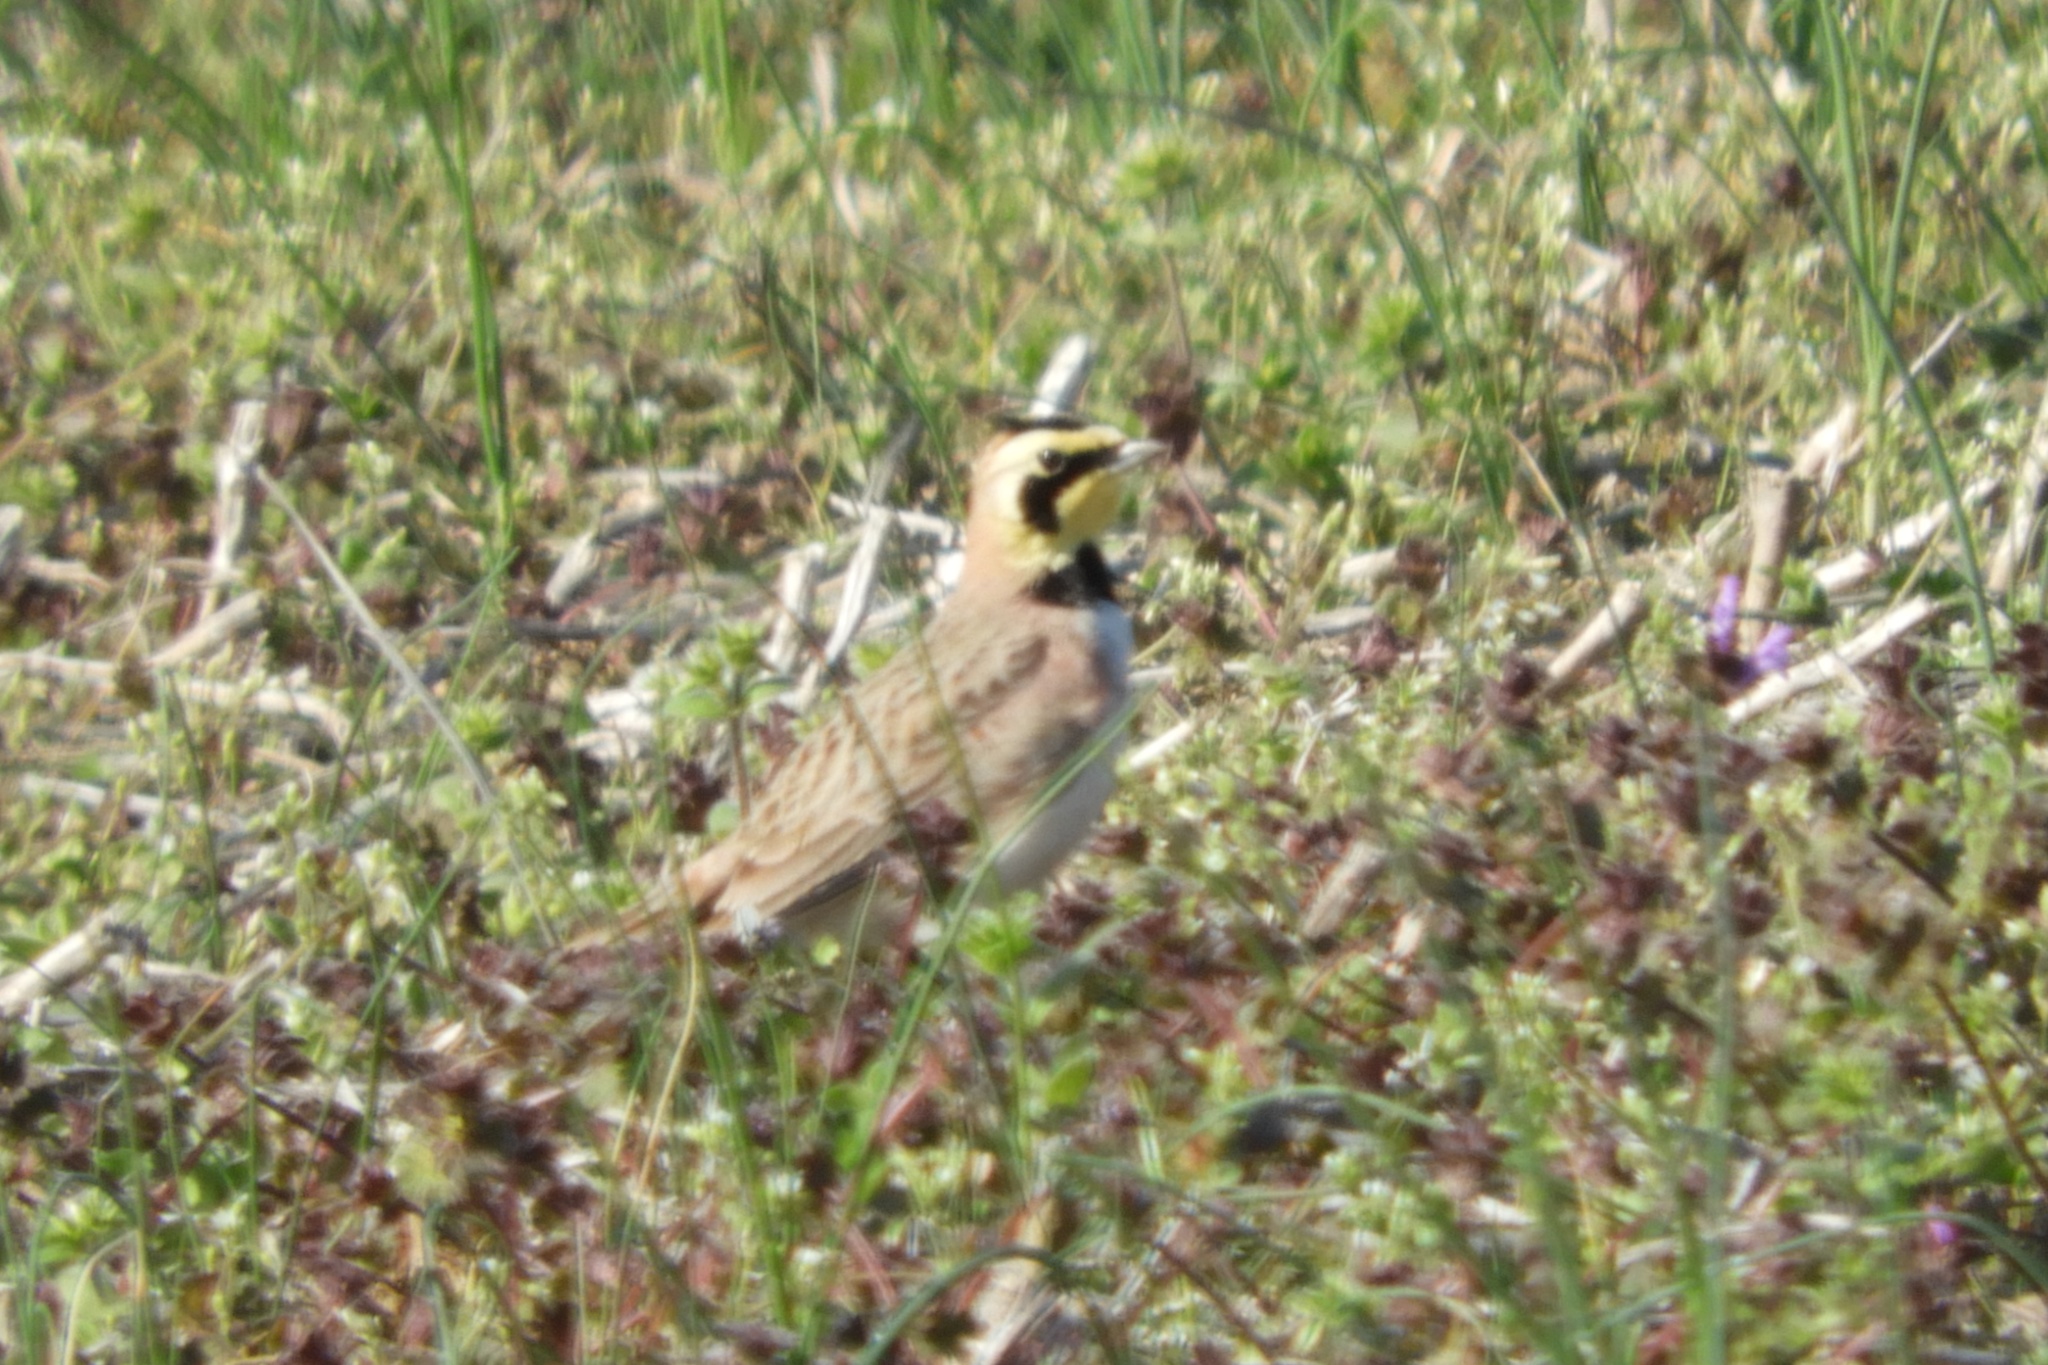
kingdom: Animalia
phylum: Chordata
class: Aves
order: Passeriformes
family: Alaudidae
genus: Eremophila
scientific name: Eremophila alpestris
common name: Horned lark
